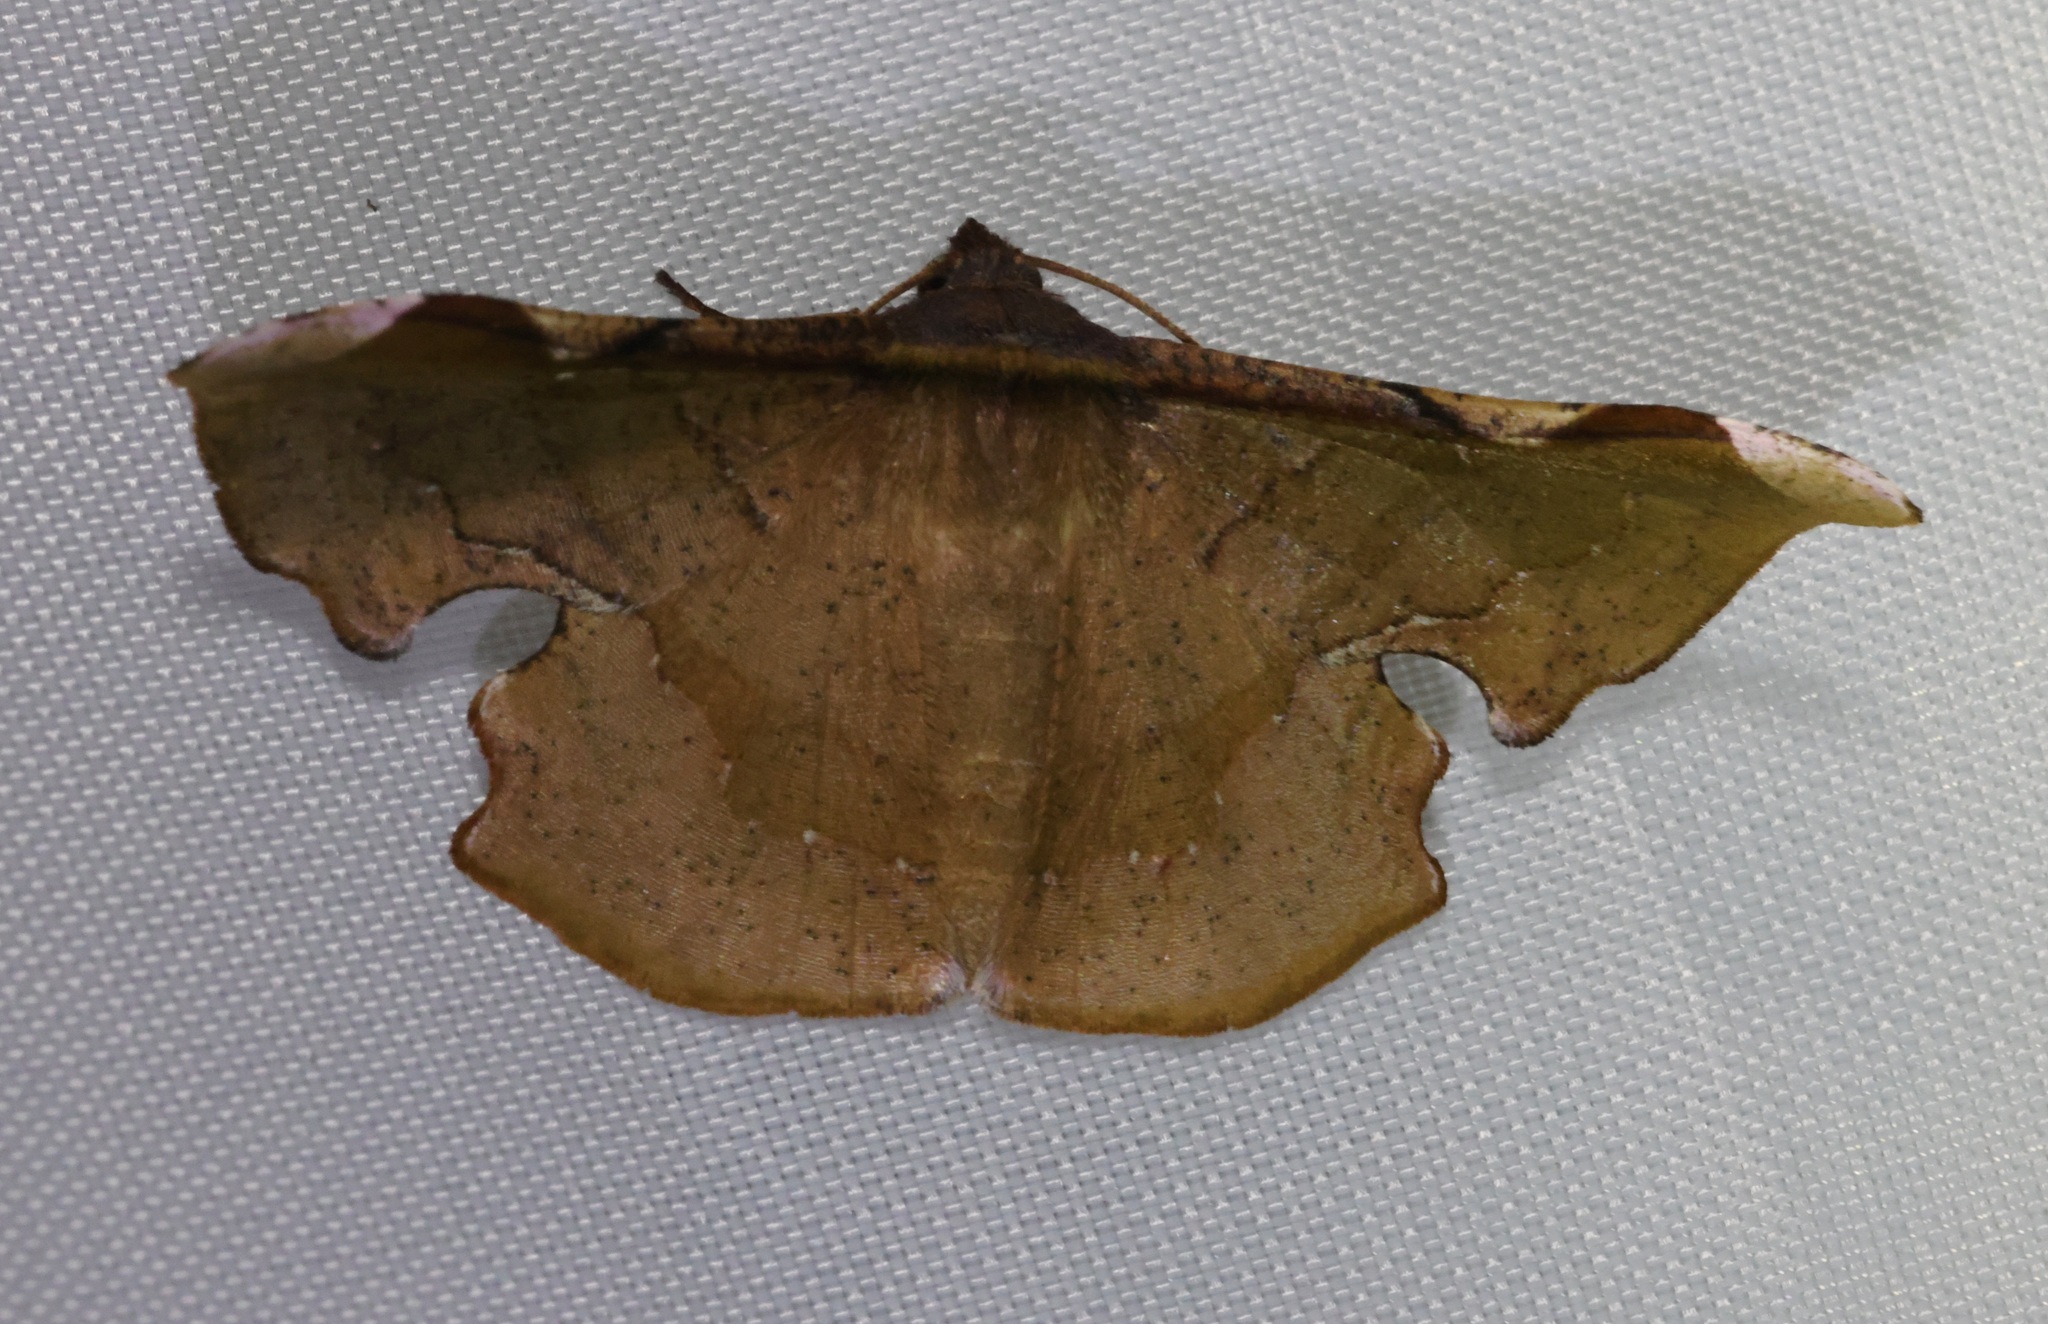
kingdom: Animalia
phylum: Arthropoda
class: Insecta
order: Lepidoptera
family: Geometridae
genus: Fascellina
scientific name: Fascellina chromataria
